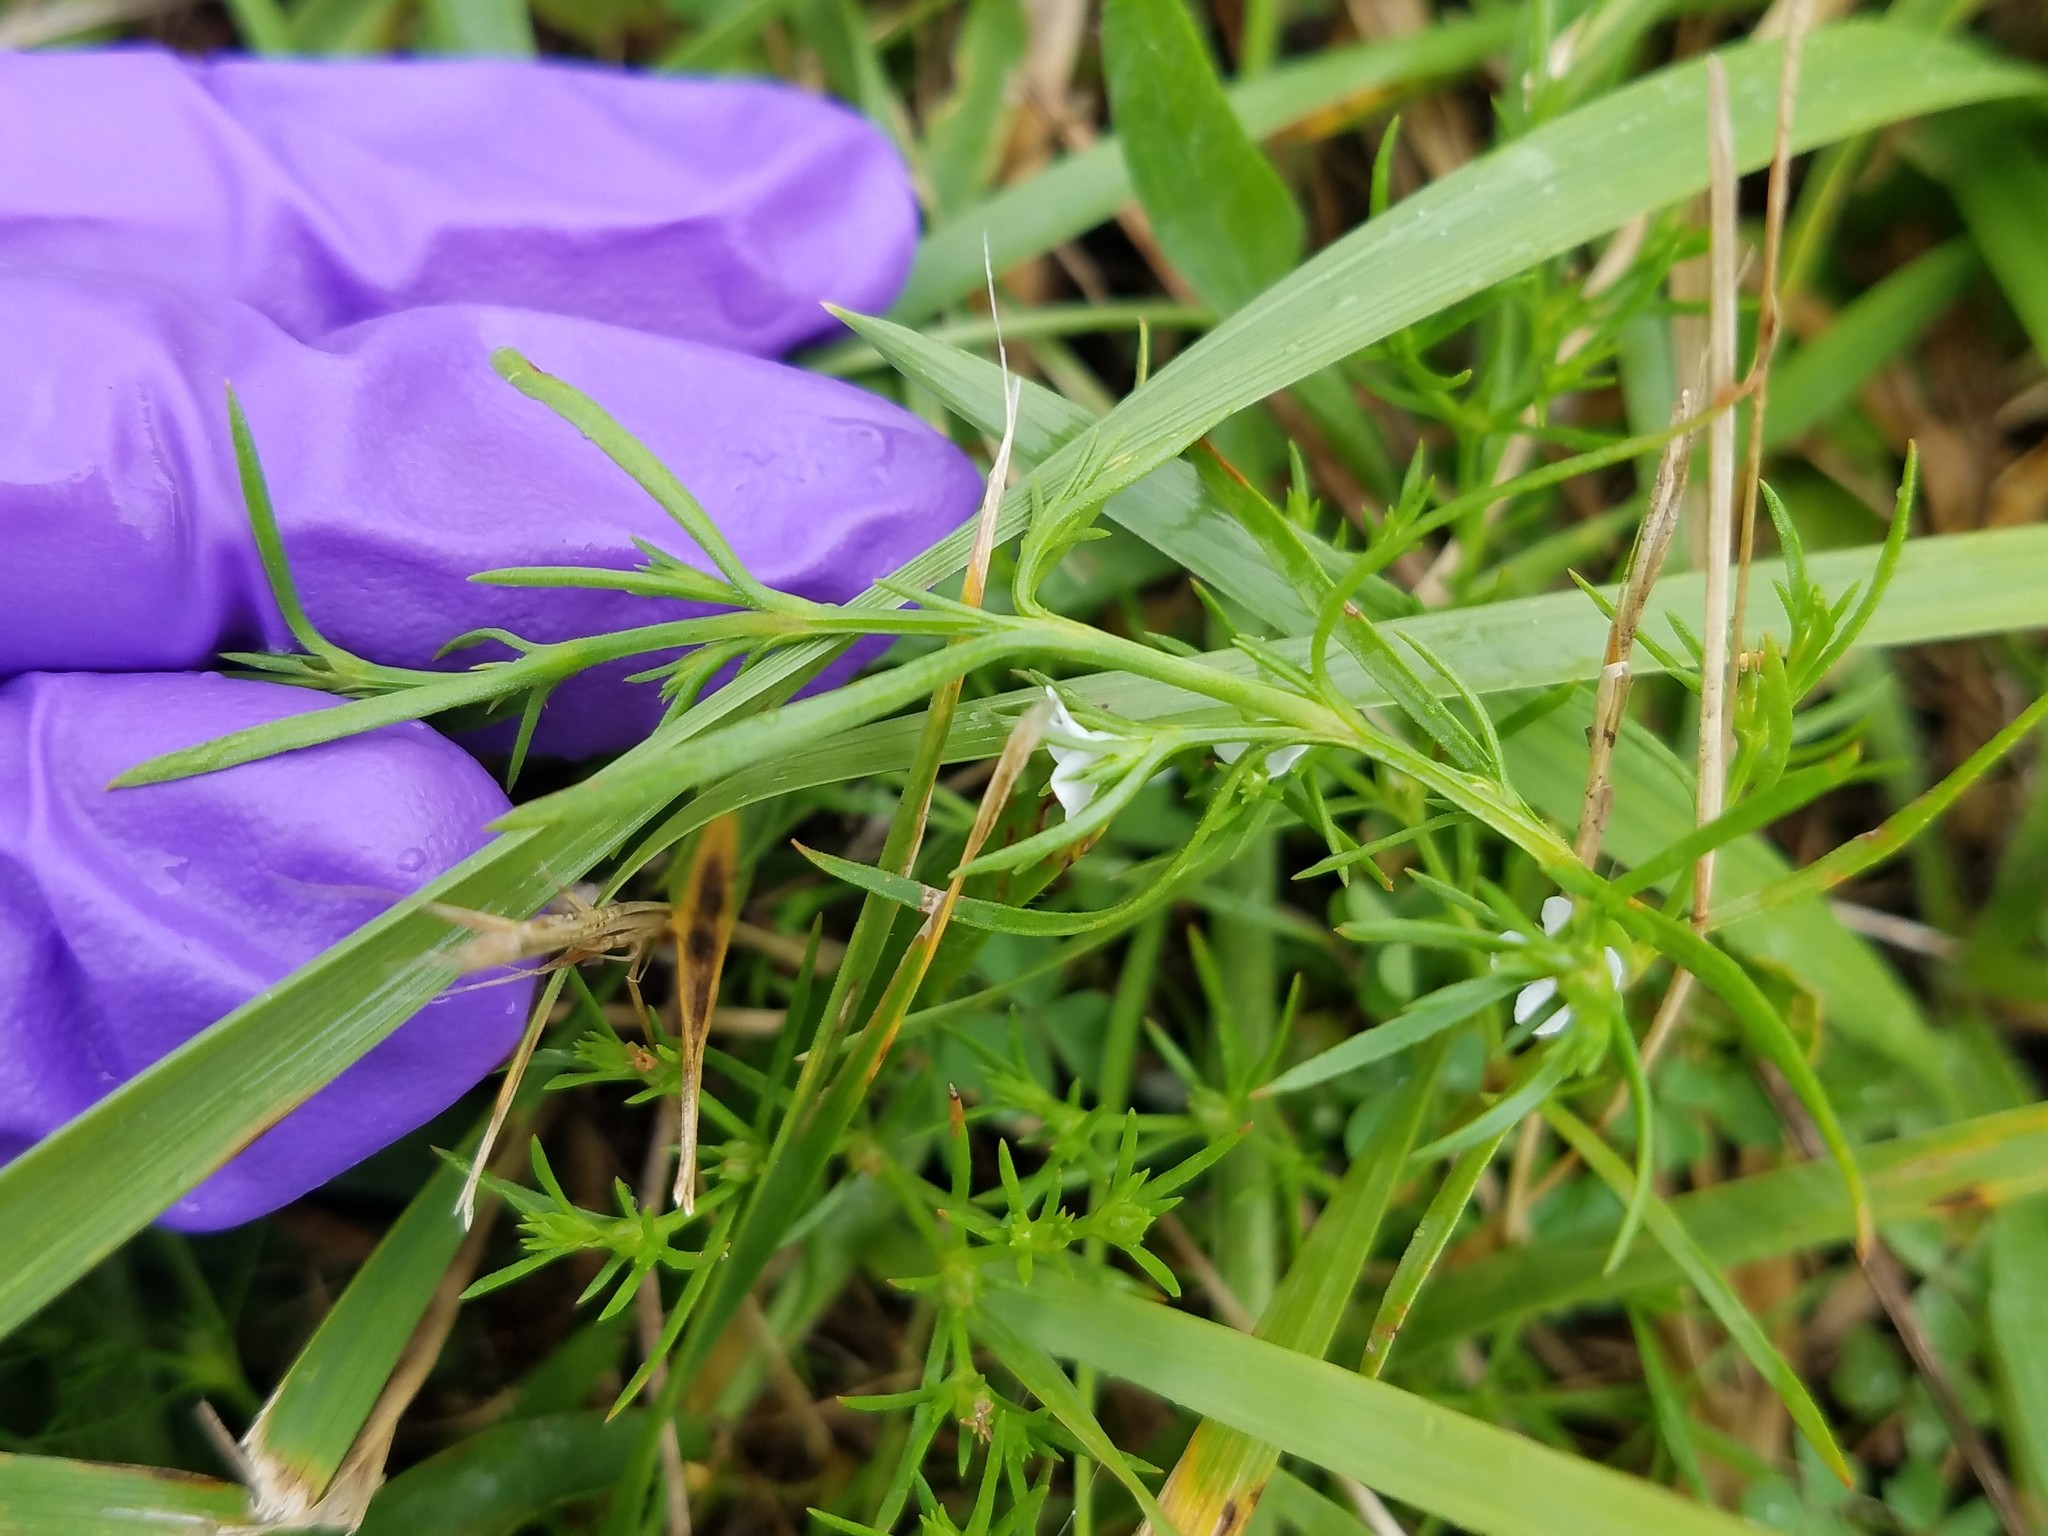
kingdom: Plantae
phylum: Tracheophyta
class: Magnoliopsida
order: Lamiales
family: Tetrachondraceae
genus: Polypremum
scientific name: Polypremum procumbens
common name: Juniper-leaf
